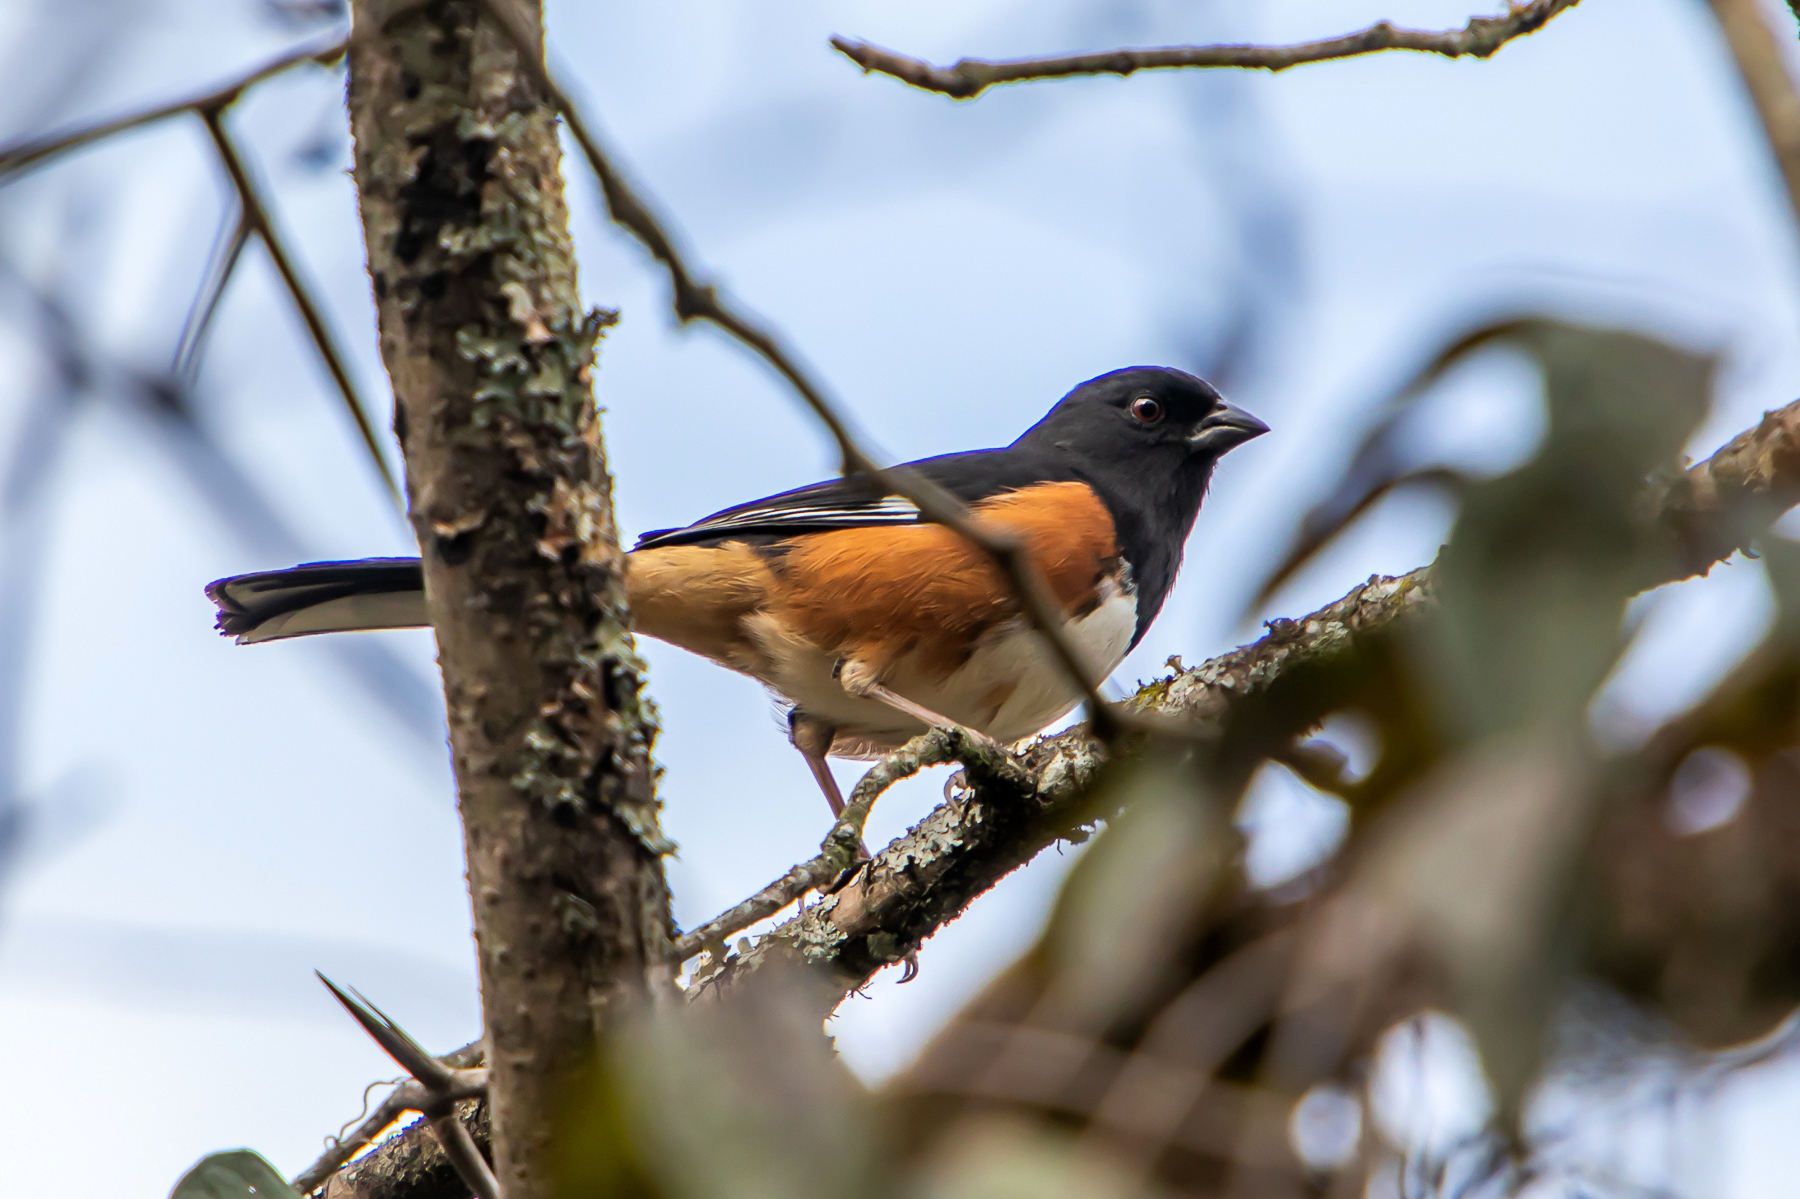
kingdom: Animalia
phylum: Chordata
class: Aves
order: Passeriformes
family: Passerellidae
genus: Pipilo
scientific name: Pipilo erythrophthalmus
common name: Eastern towhee
